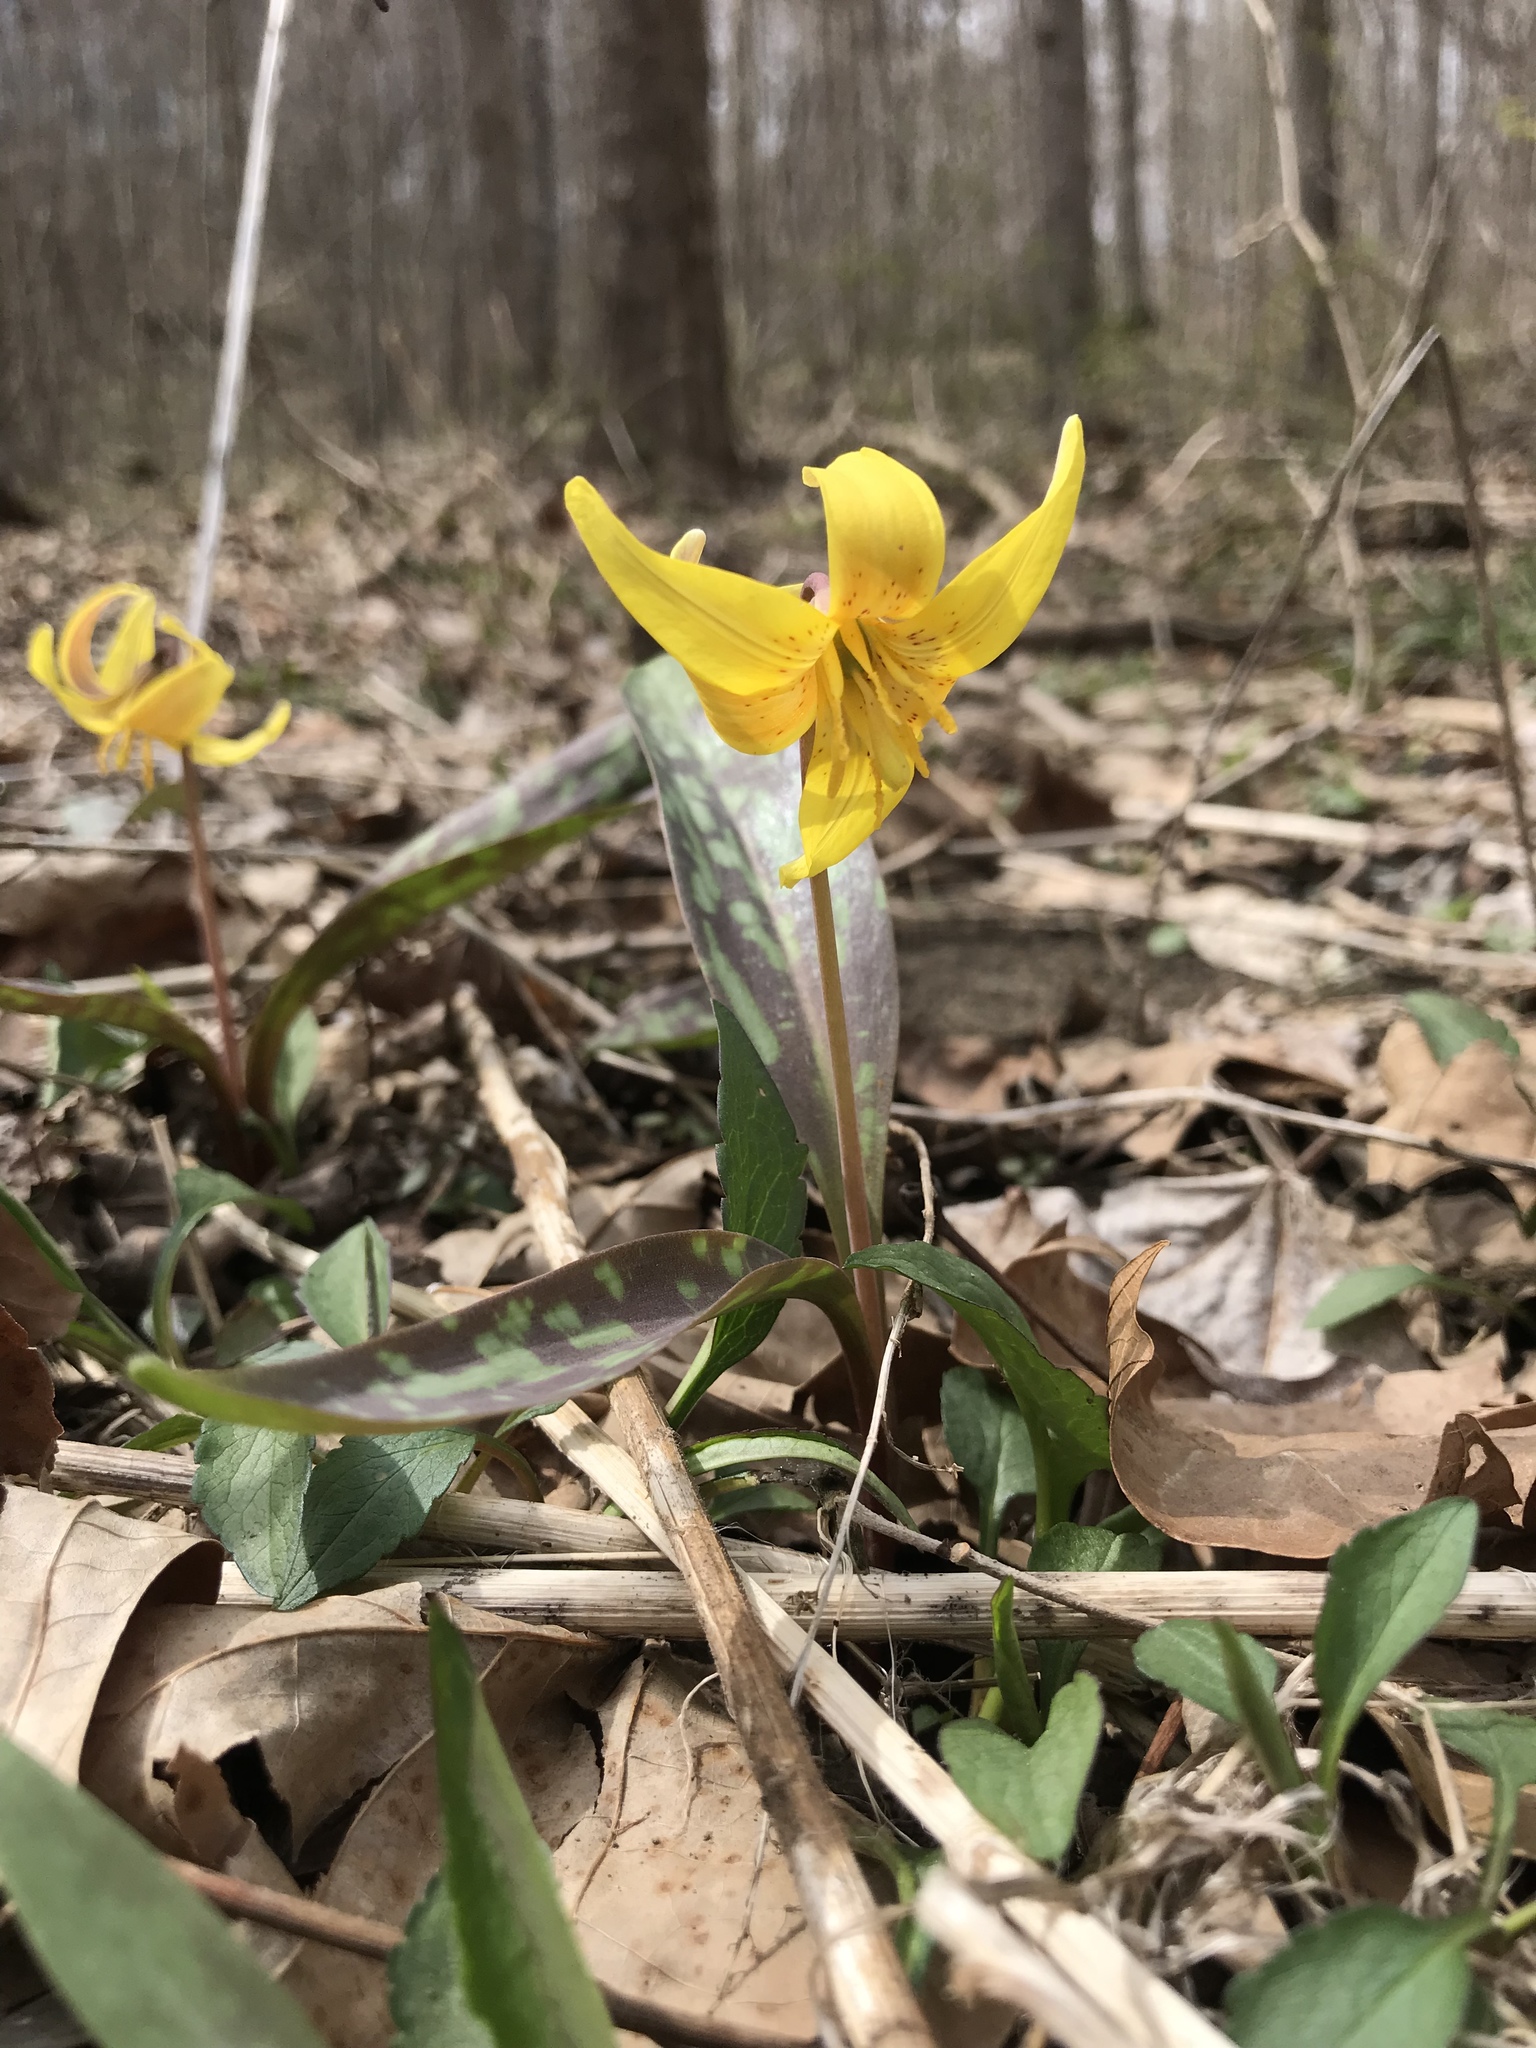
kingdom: Plantae
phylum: Tracheophyta
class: Liliopsida
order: Liliales
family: Liliaceae
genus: Erythronium
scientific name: Erythronium americanum
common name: Yellow adder's-tongue
